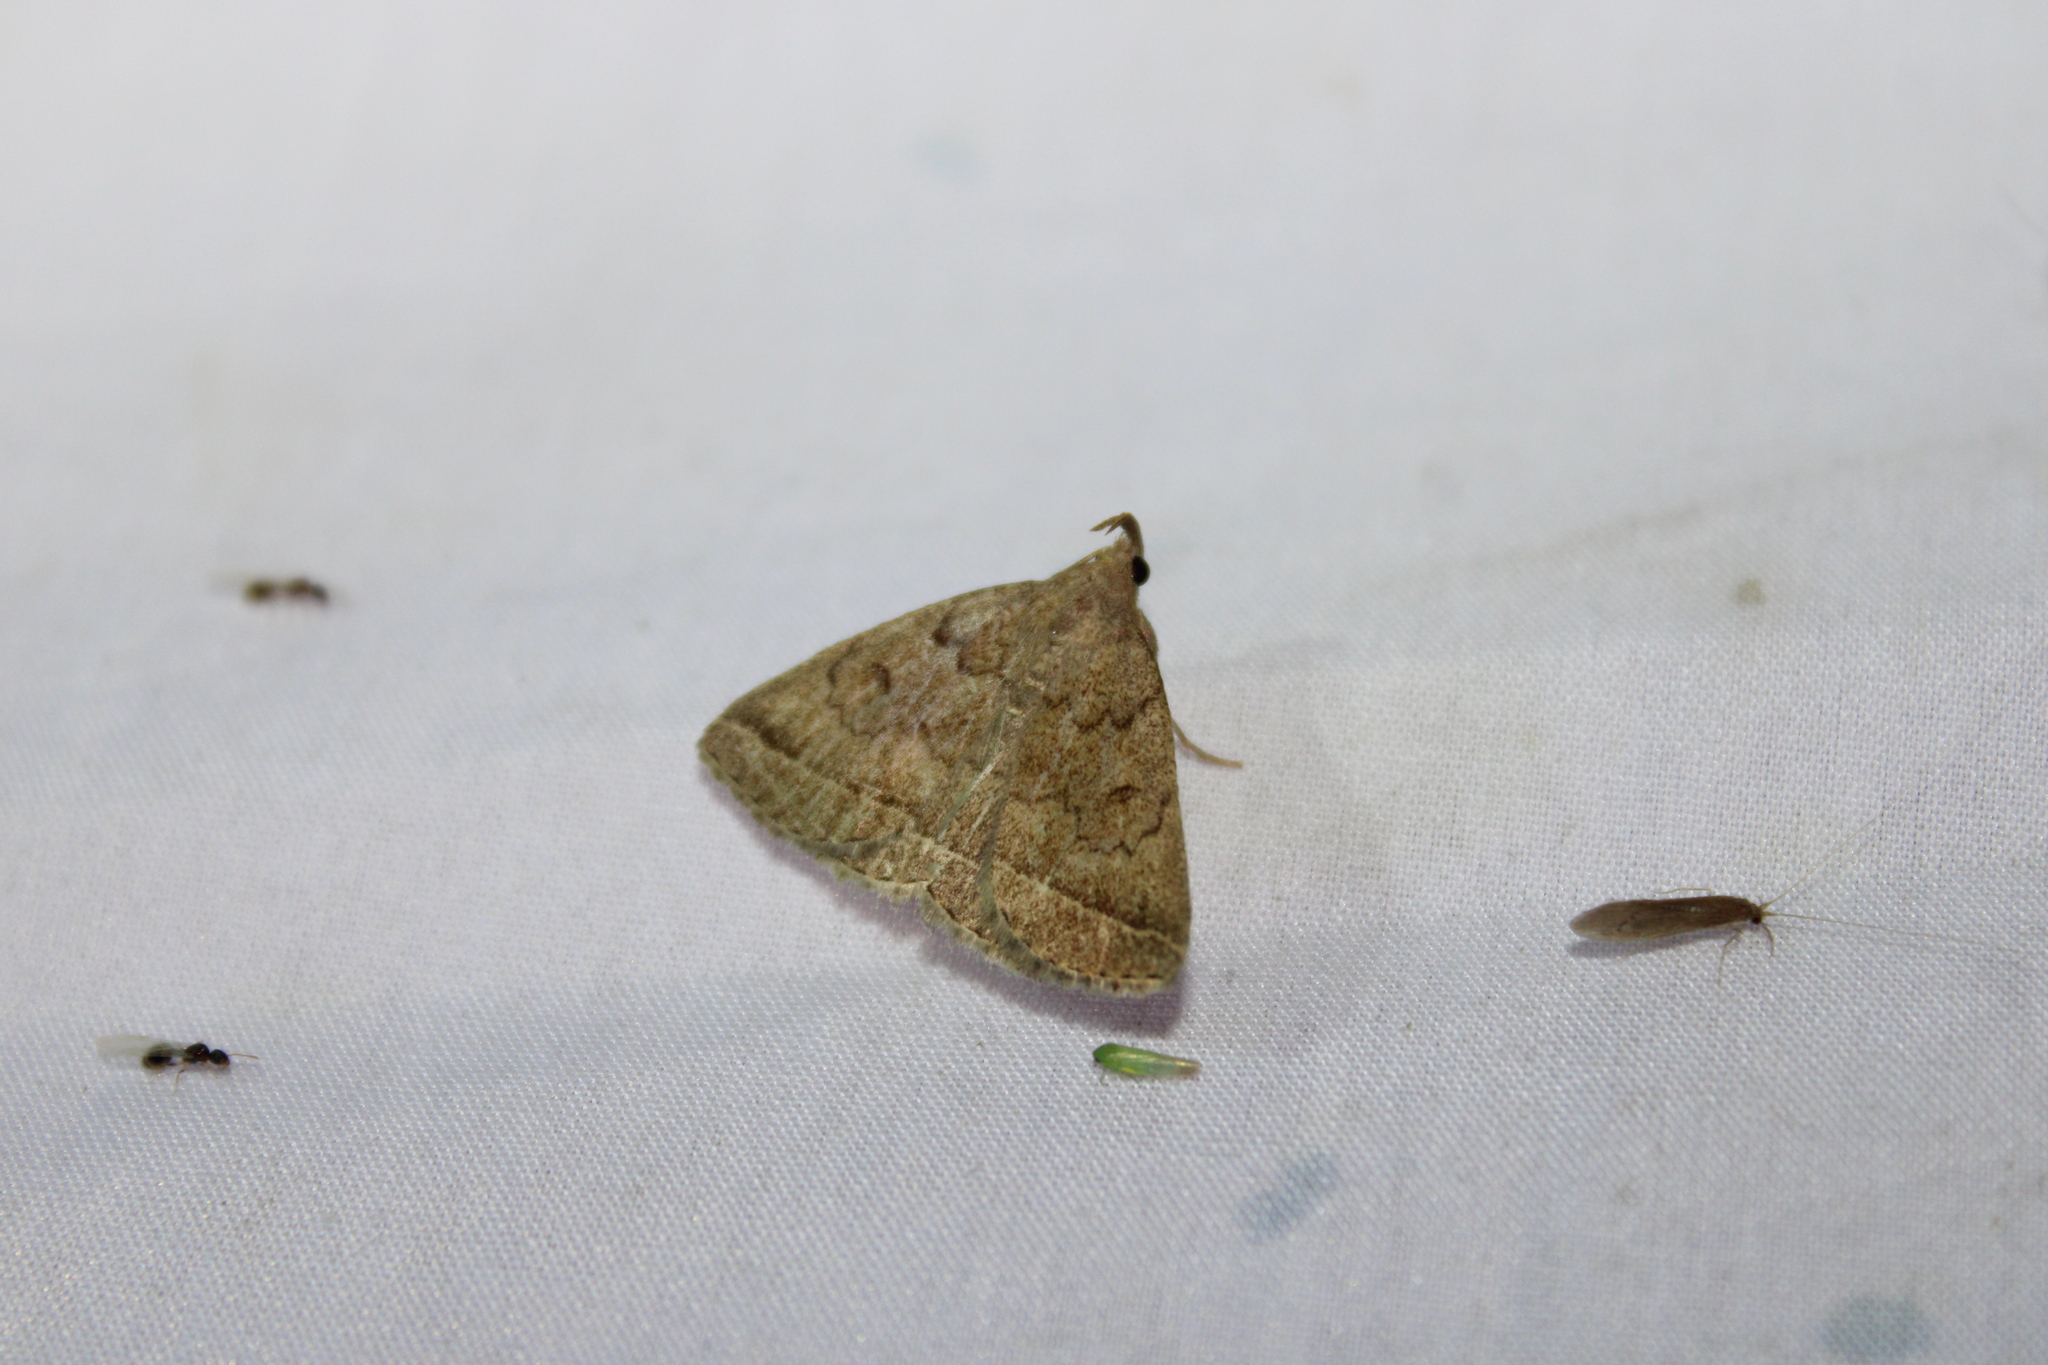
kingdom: Animalia
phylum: Arthropoda
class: Insecta
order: Lepidoptera
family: Erebidae
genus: Zanclognatha
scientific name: Zanclognatha jacchusalis
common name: Yellowish zanclognatha
